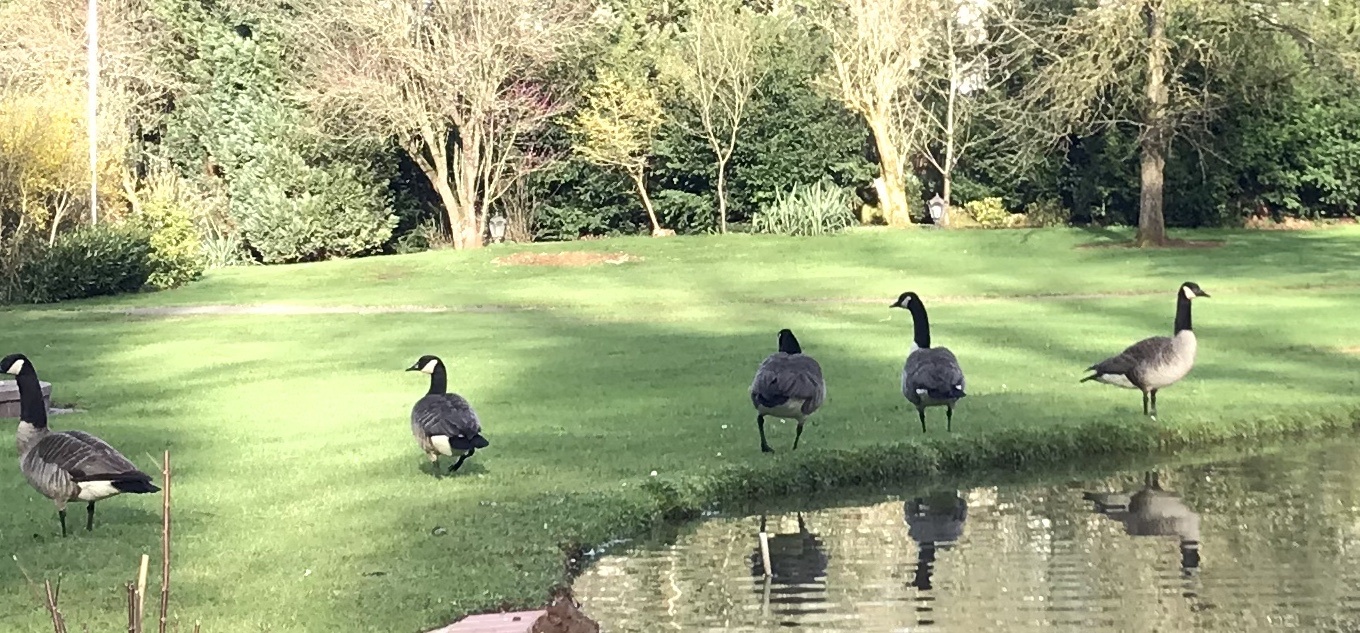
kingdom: Animalia
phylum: Chordata
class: Aves
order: Anseriformes
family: Anatidae
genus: Branta
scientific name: Branta canadensis
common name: Canada goose
